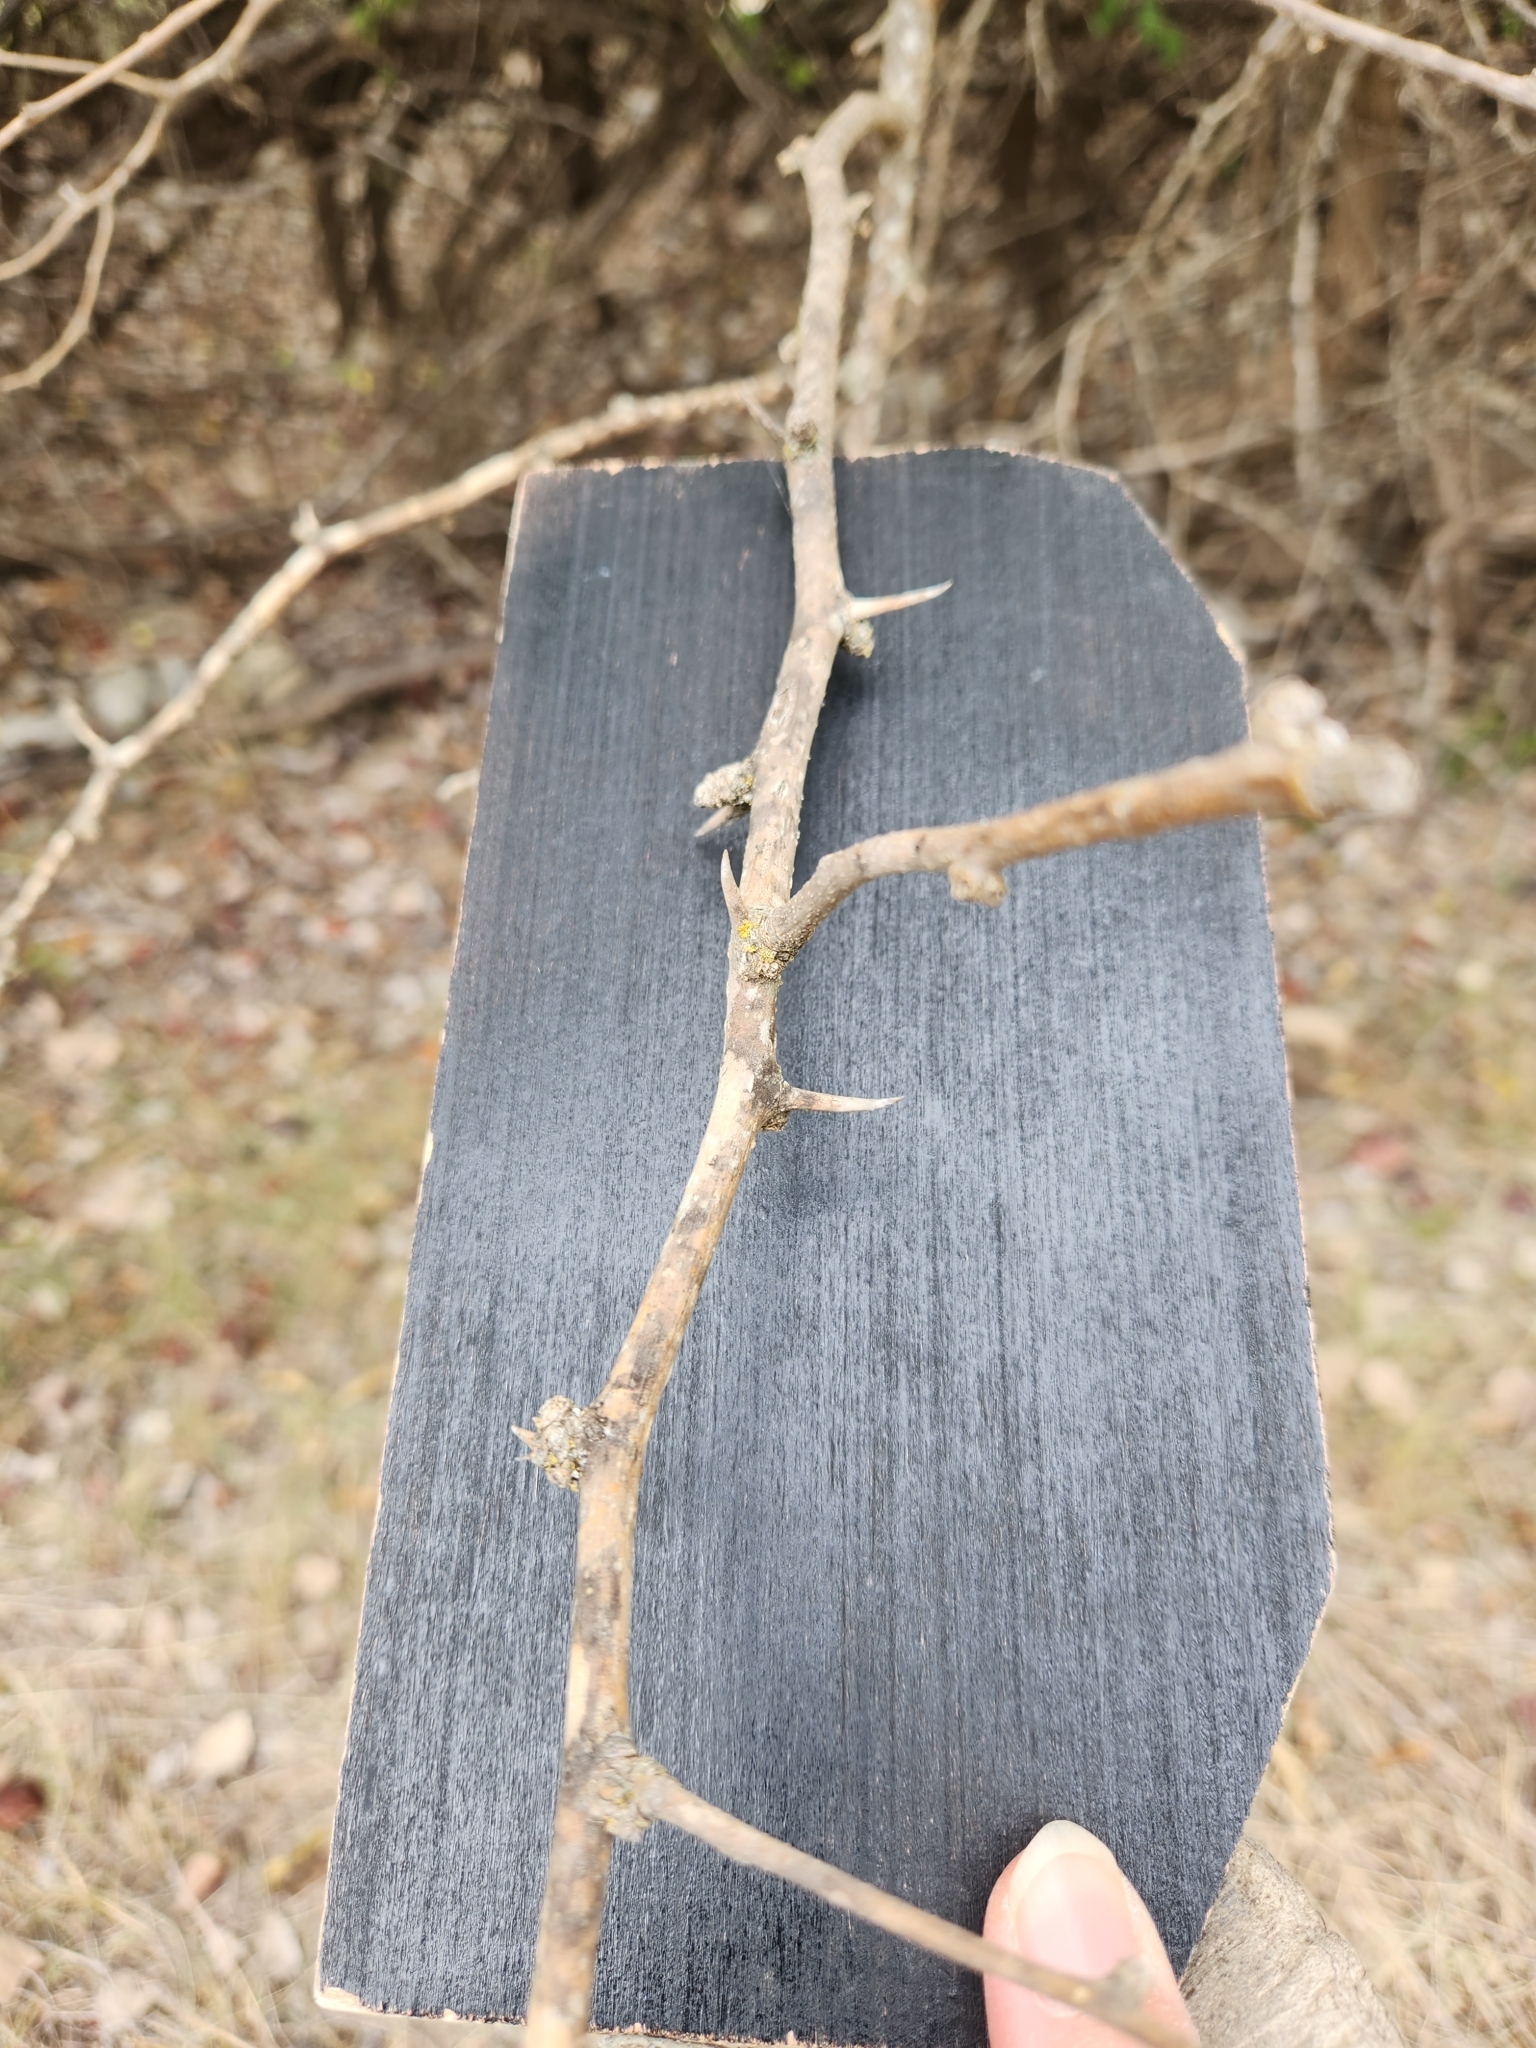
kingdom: Plantae
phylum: Tracheophyta
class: Magnoliopsida
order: Rosales
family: Moraceae
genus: Maclura
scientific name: Maclura pomifera
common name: Osage-orange
